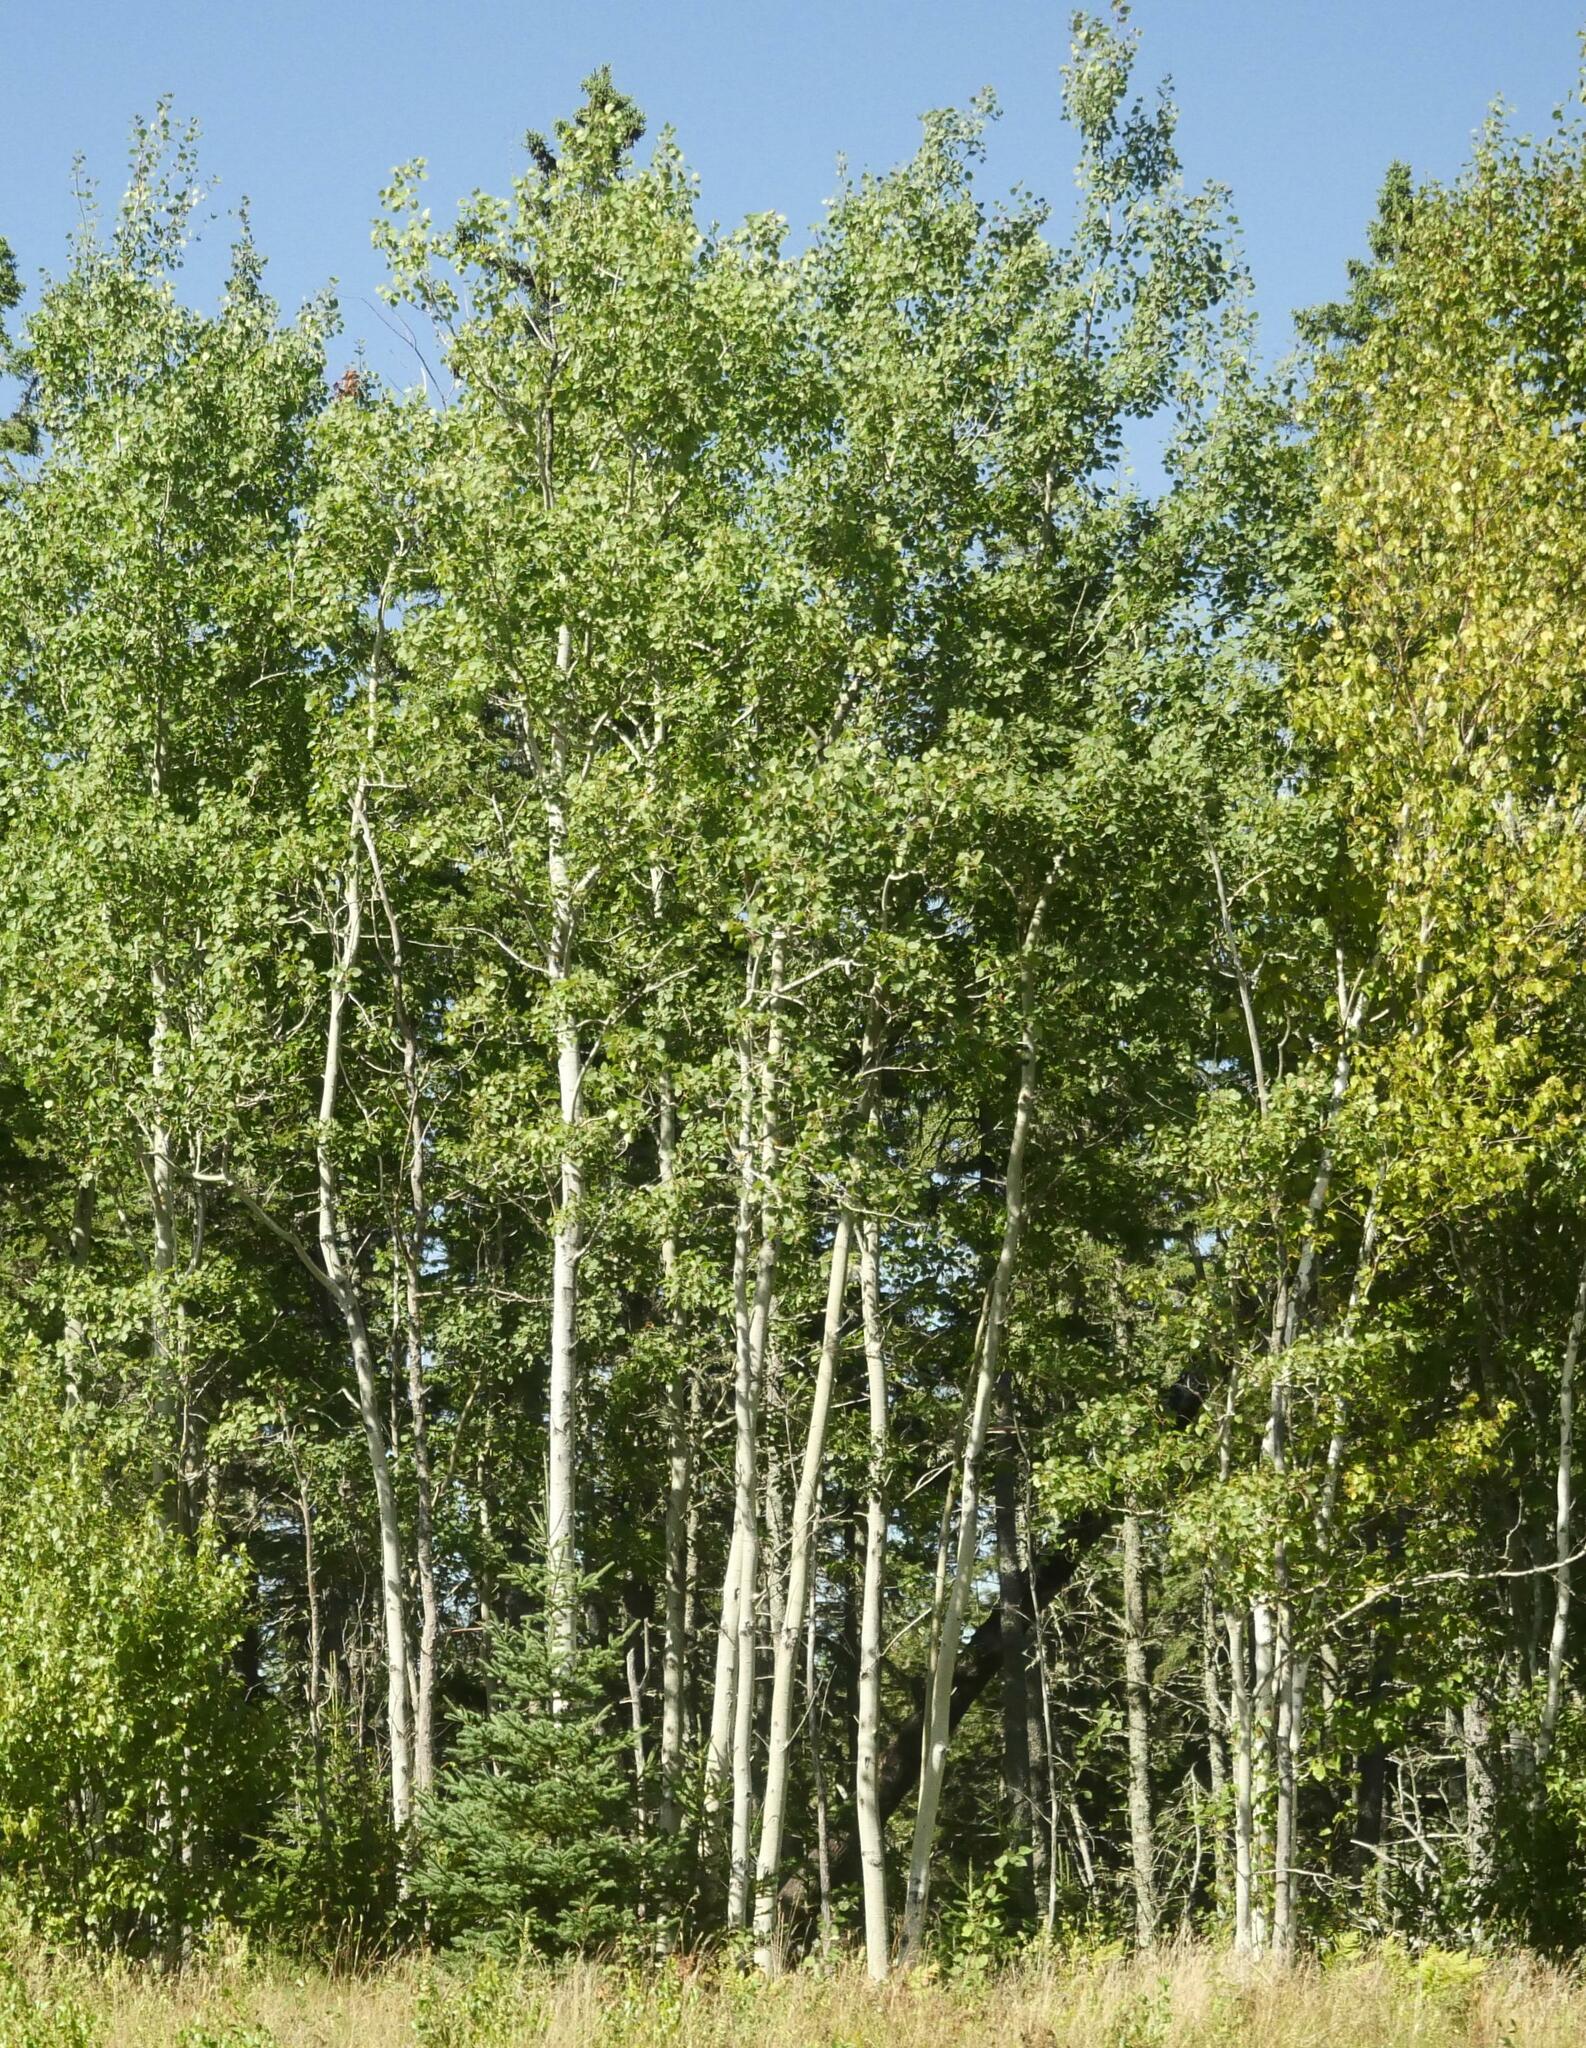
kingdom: Plantae
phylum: Tracheophyta
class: Magnoliopsida
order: Malpighiales
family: Salicaceae
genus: Populus
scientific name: Populus tremuloides
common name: Quaking aspen
